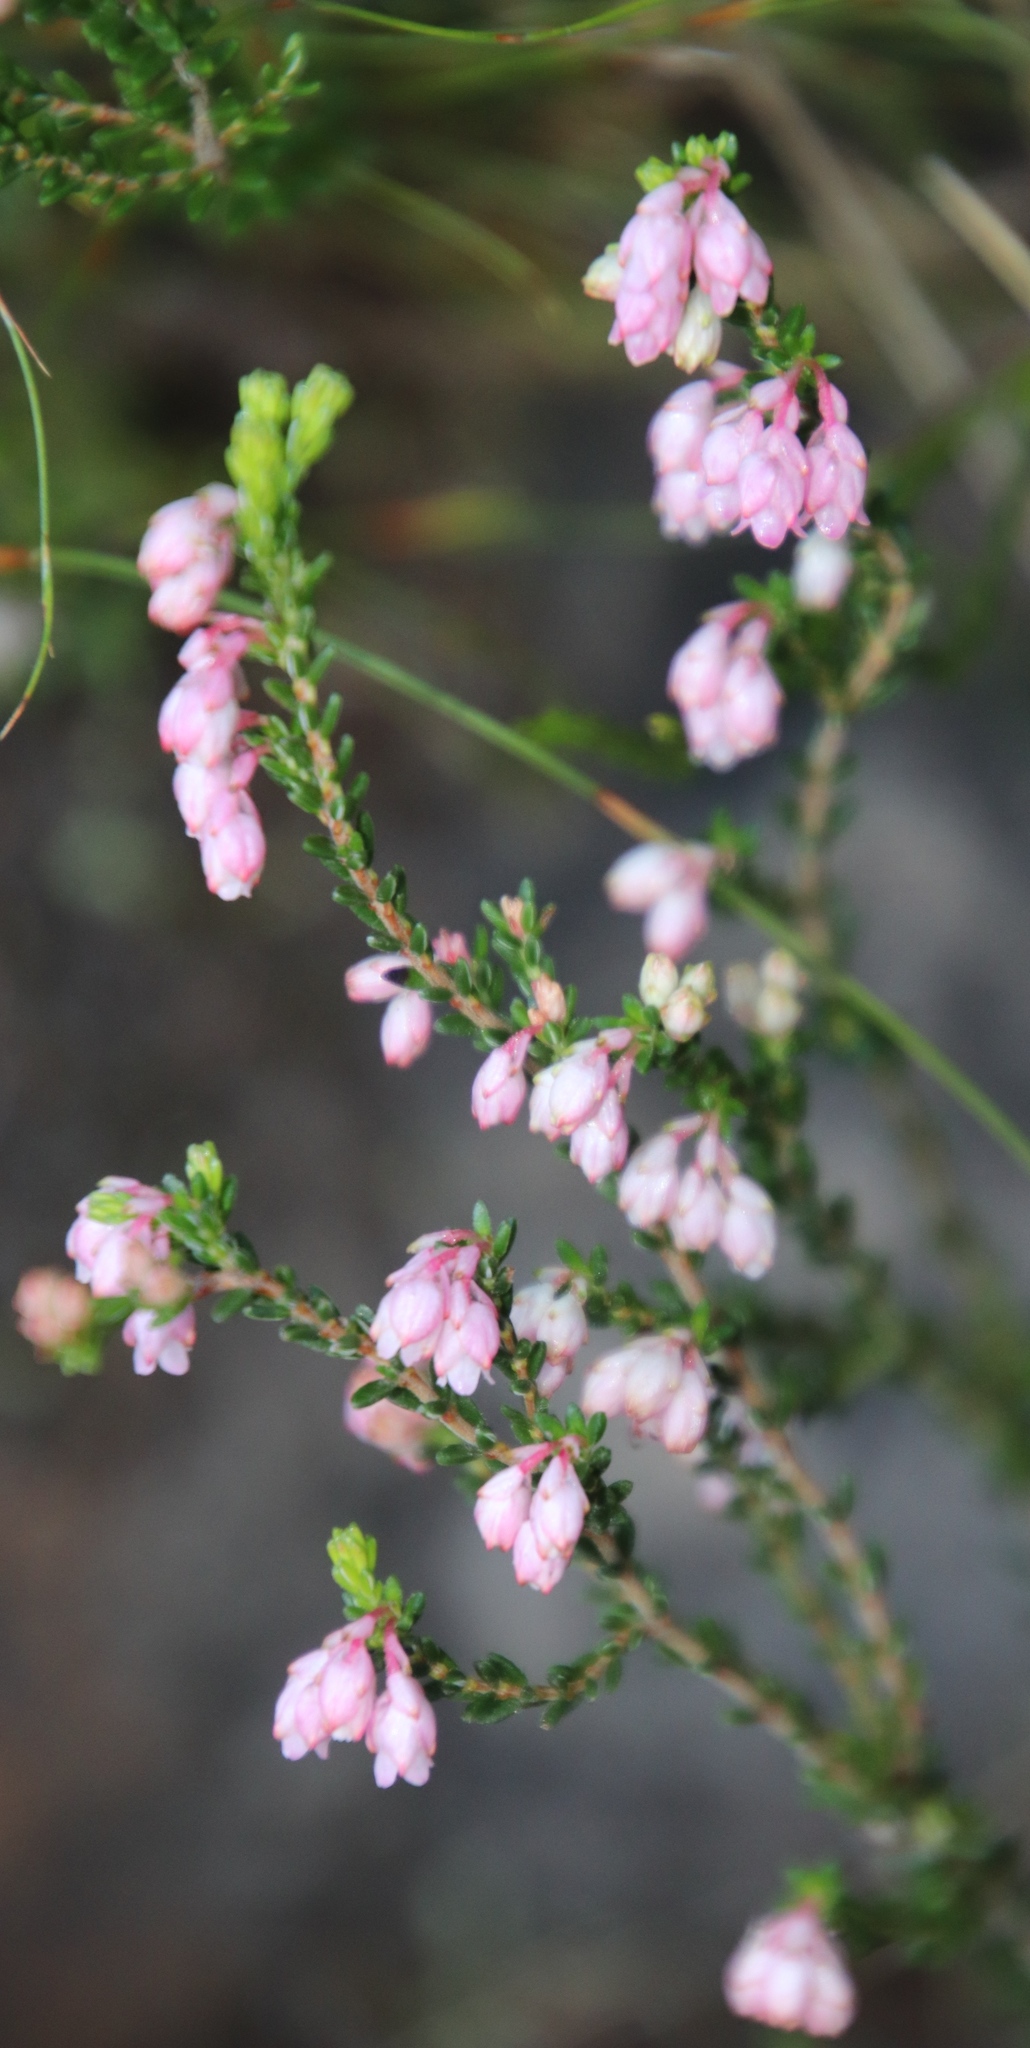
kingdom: Plantae
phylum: Tracheophyta
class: Magnoliopsida
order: Ericales
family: Ericaceae
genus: Erica
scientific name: Erica brevifolia
